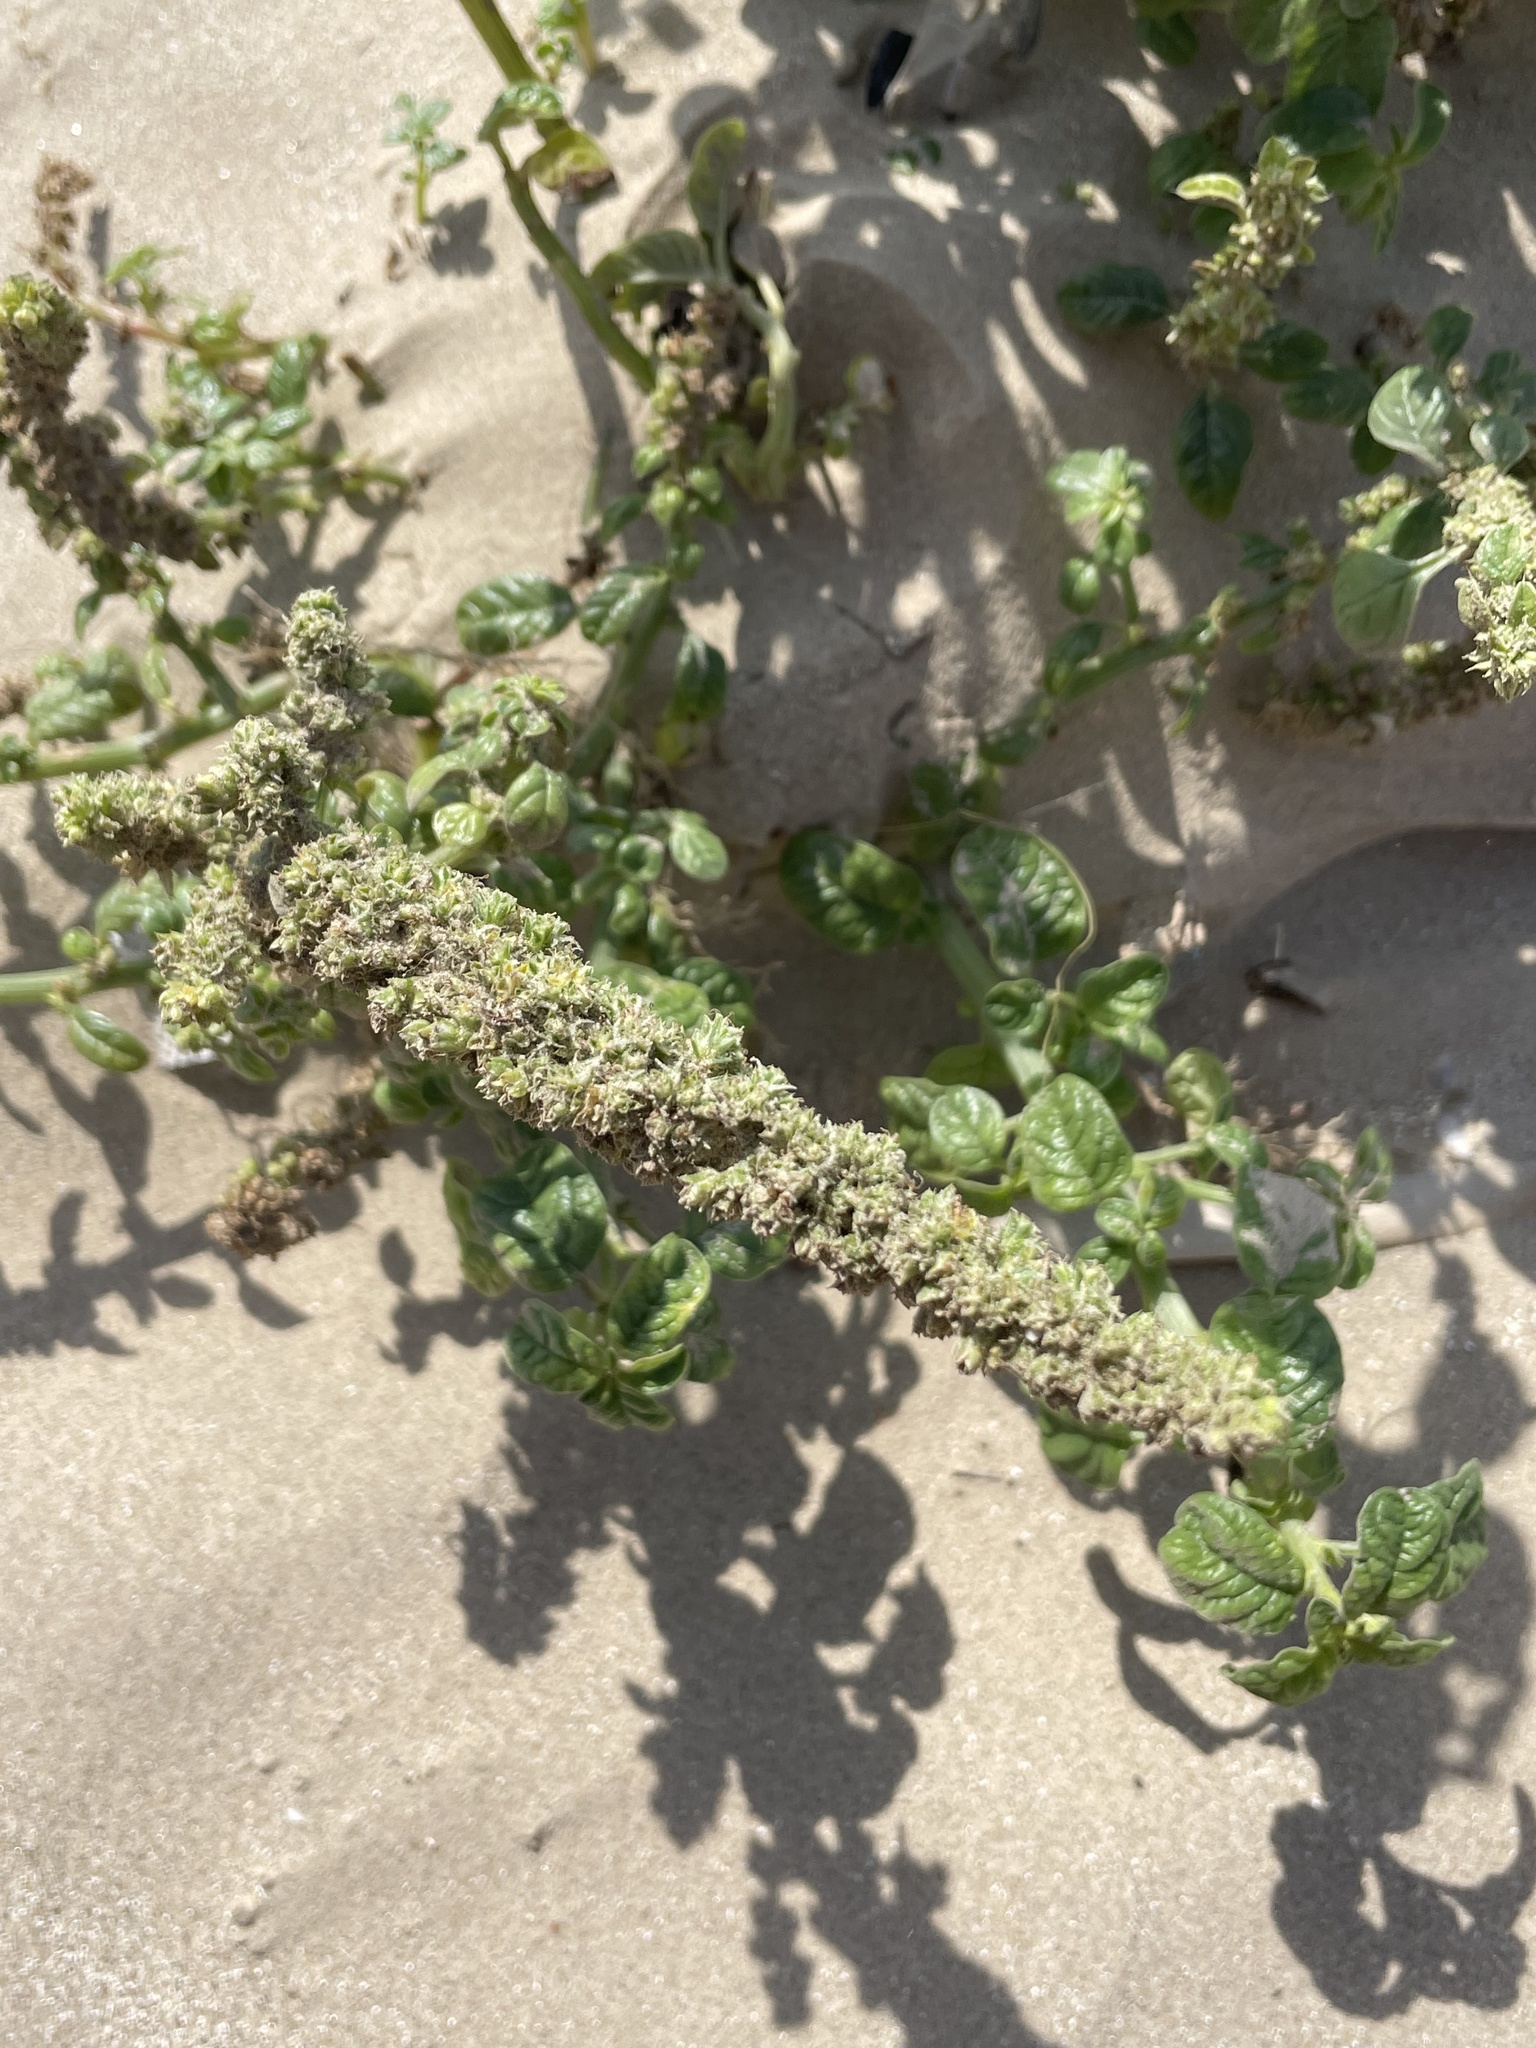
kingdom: Plantae
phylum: Tracheophyta
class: Magnoliopsida
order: Caryophyllales
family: Amaranthaceae
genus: Amaranthus
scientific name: Amaranthus greggii
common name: Josiah amaranth
